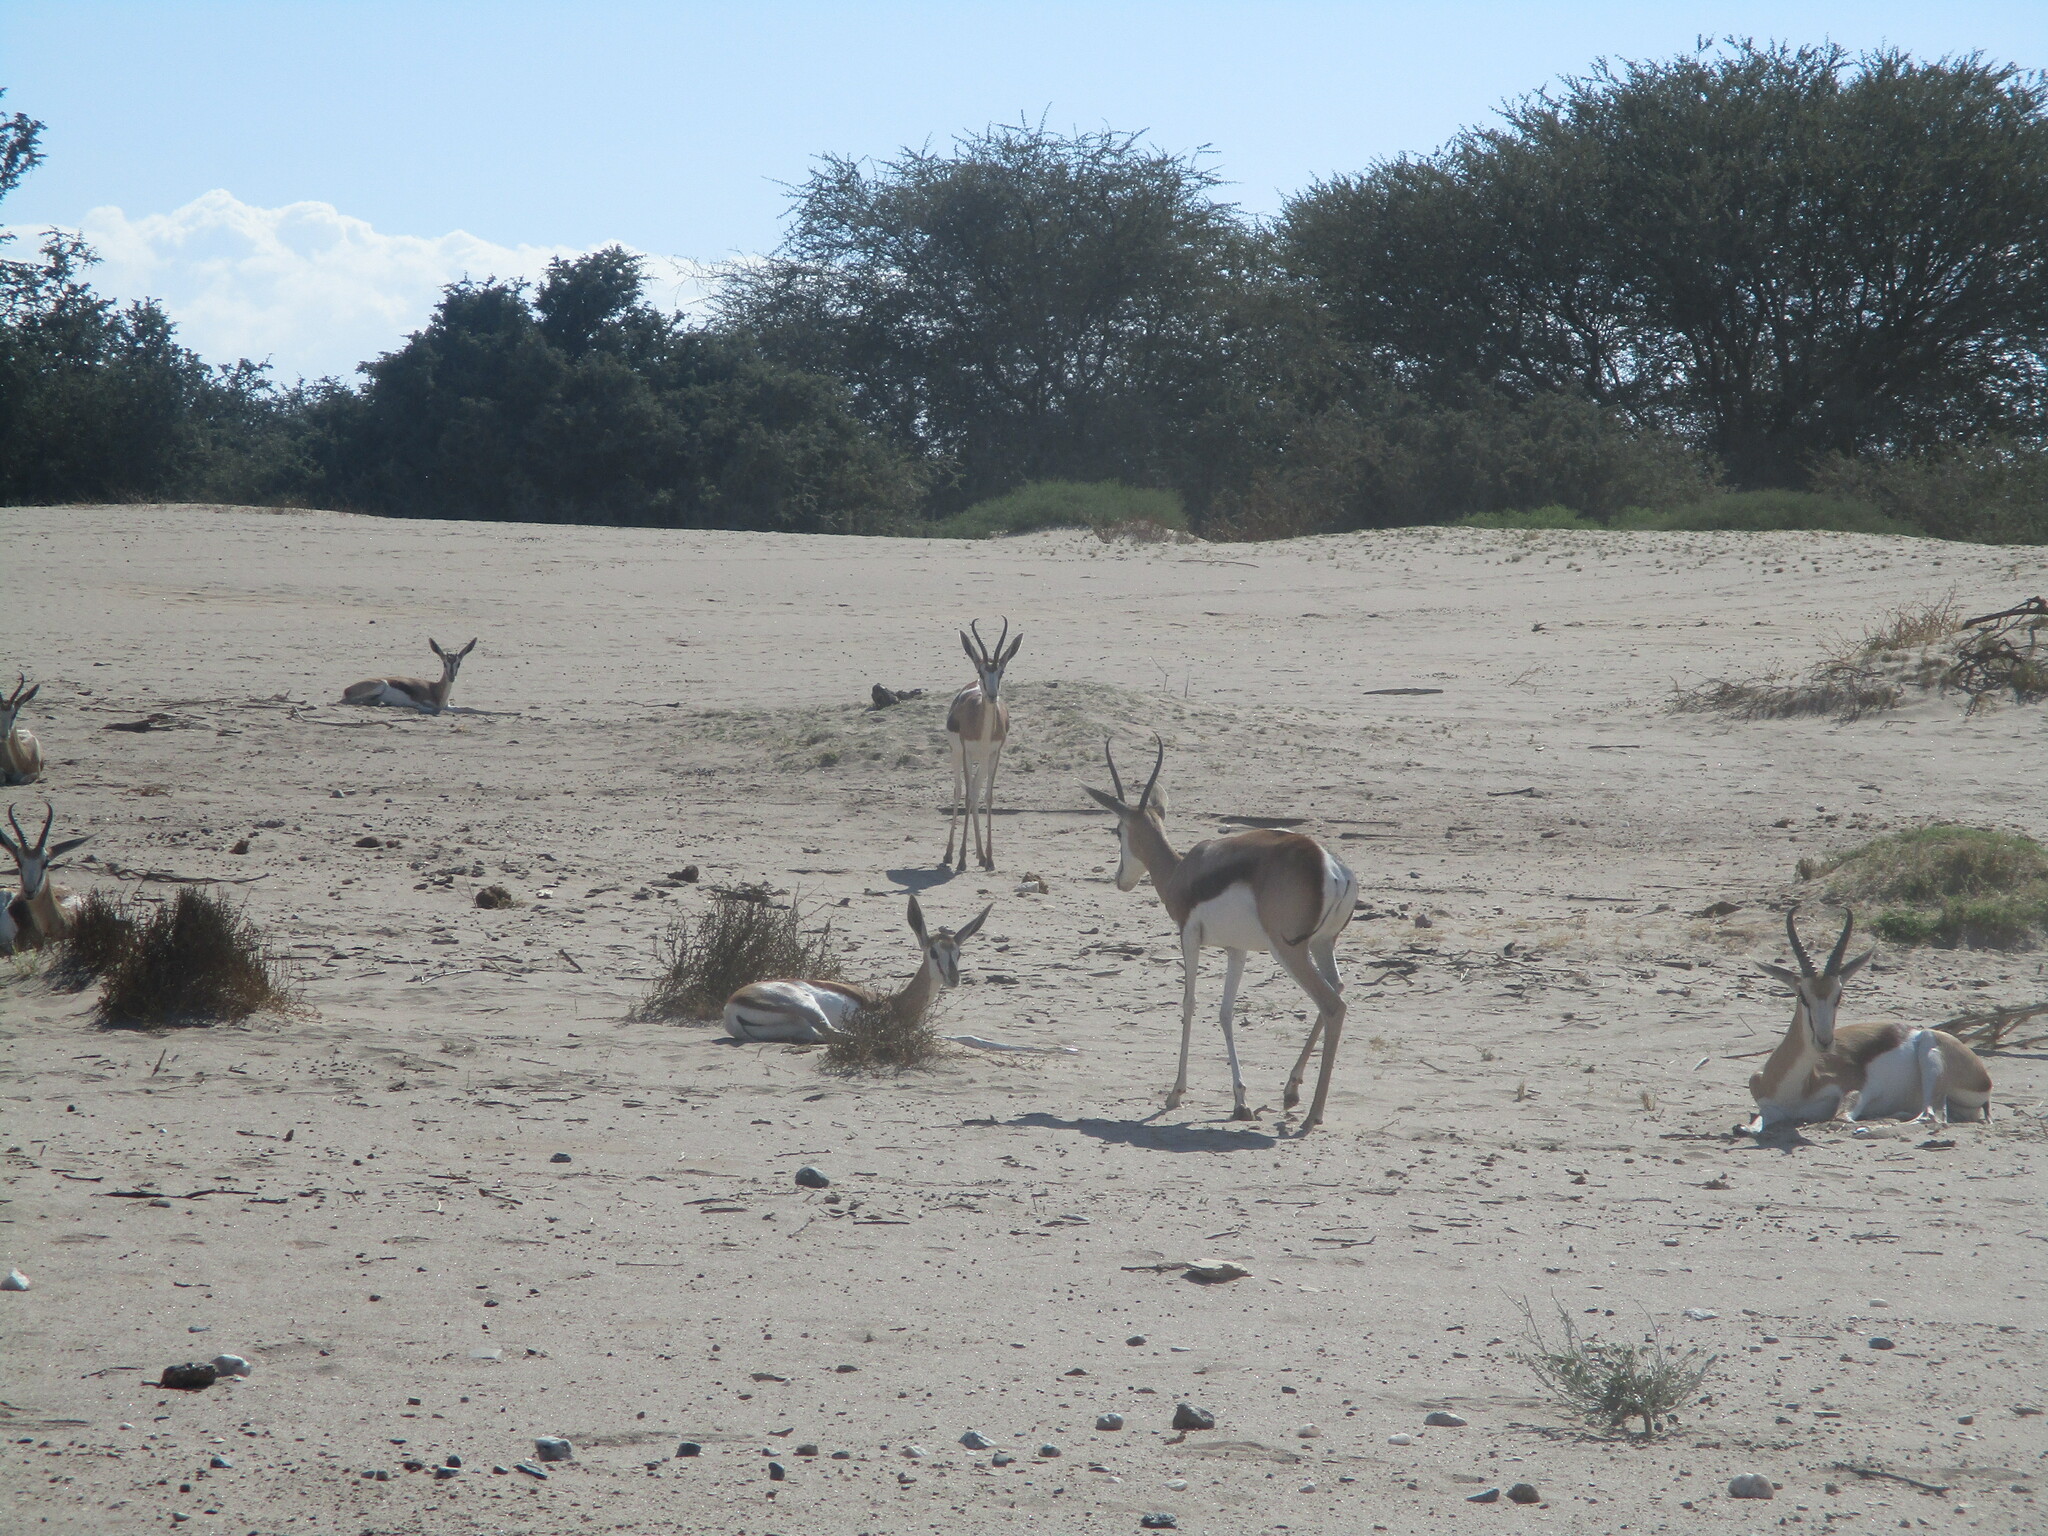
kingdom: Animalia
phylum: Chordata
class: Mammalia
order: Artiodactyla
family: Bovidae
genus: Antidorcas
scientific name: Antidorcas marsupialis
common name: Springbok
